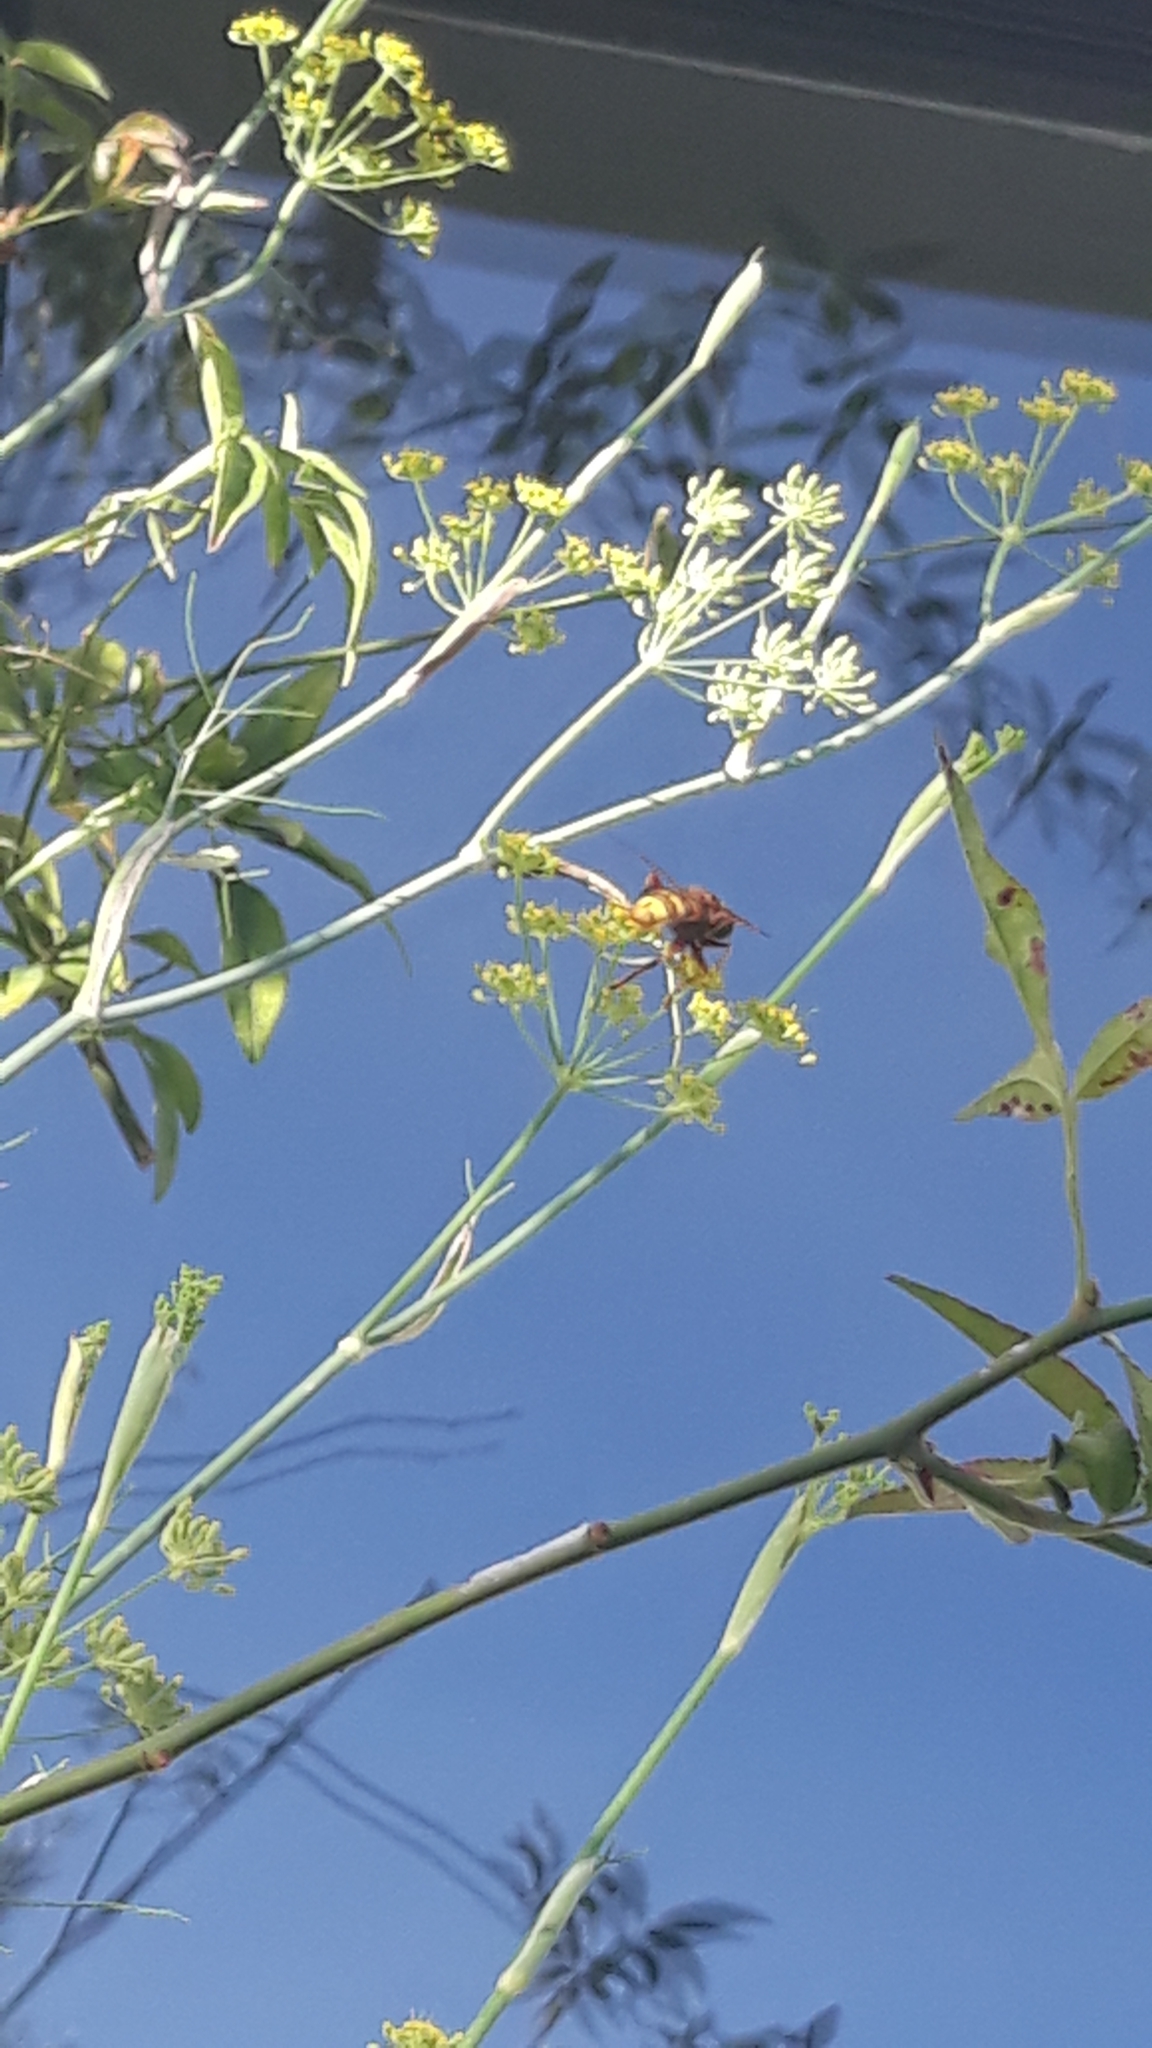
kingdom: Animalia
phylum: Arthropoda
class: Insecta
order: Diptera
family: Syrphidae
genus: Milesia
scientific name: Milesia crabroniformis
